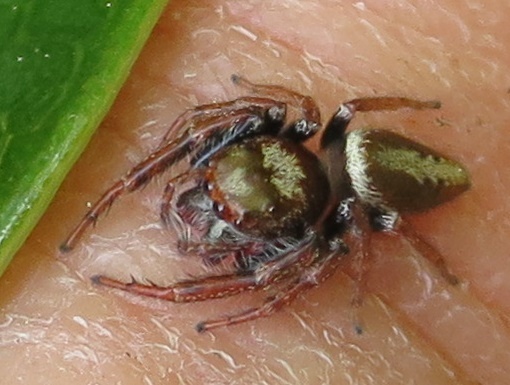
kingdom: Animalia
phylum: Arthropoda
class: Arachnida
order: Araneae
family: Salticidae
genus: Opisthoncus
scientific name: Opisthoncus polyphemus
